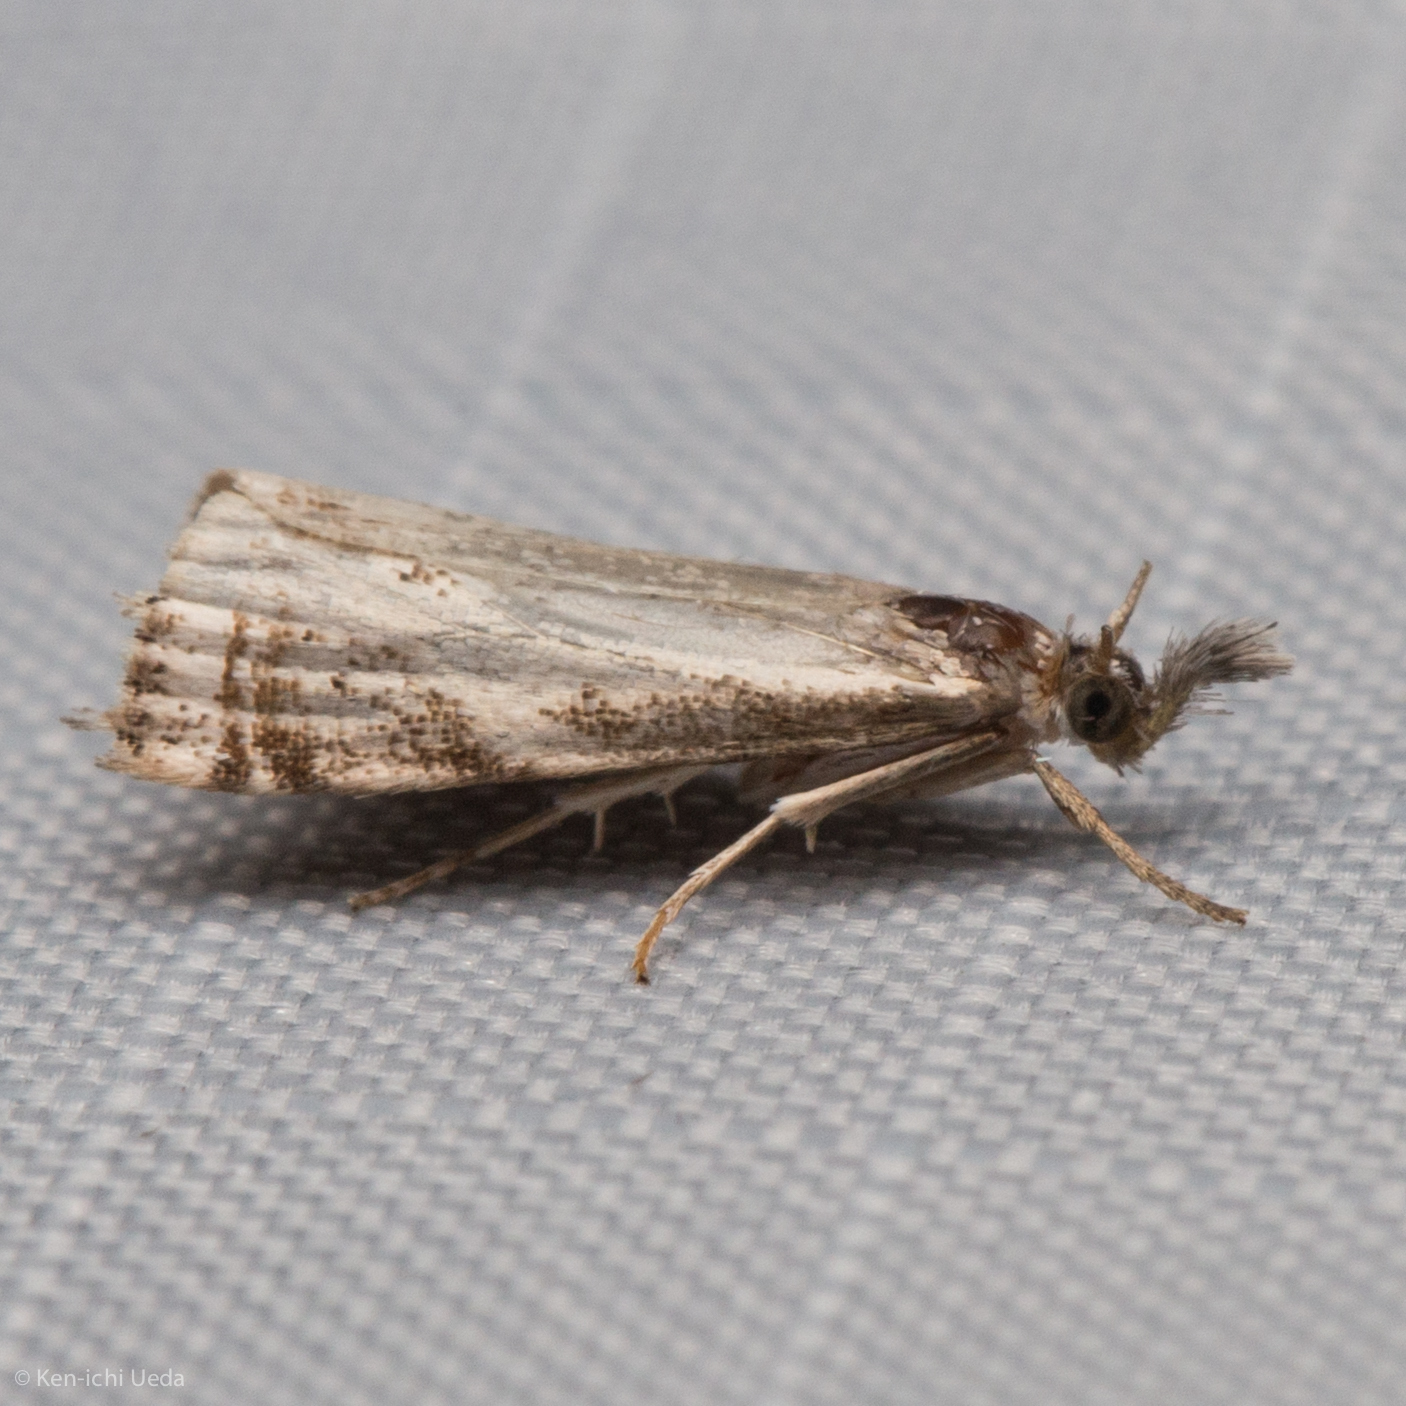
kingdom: Animalia
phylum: Arthropoda
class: Insecta
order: Lepidoptera
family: Crambidae
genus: Microcrambus
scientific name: Microcrambus elegans
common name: Elegant grass-veneer
